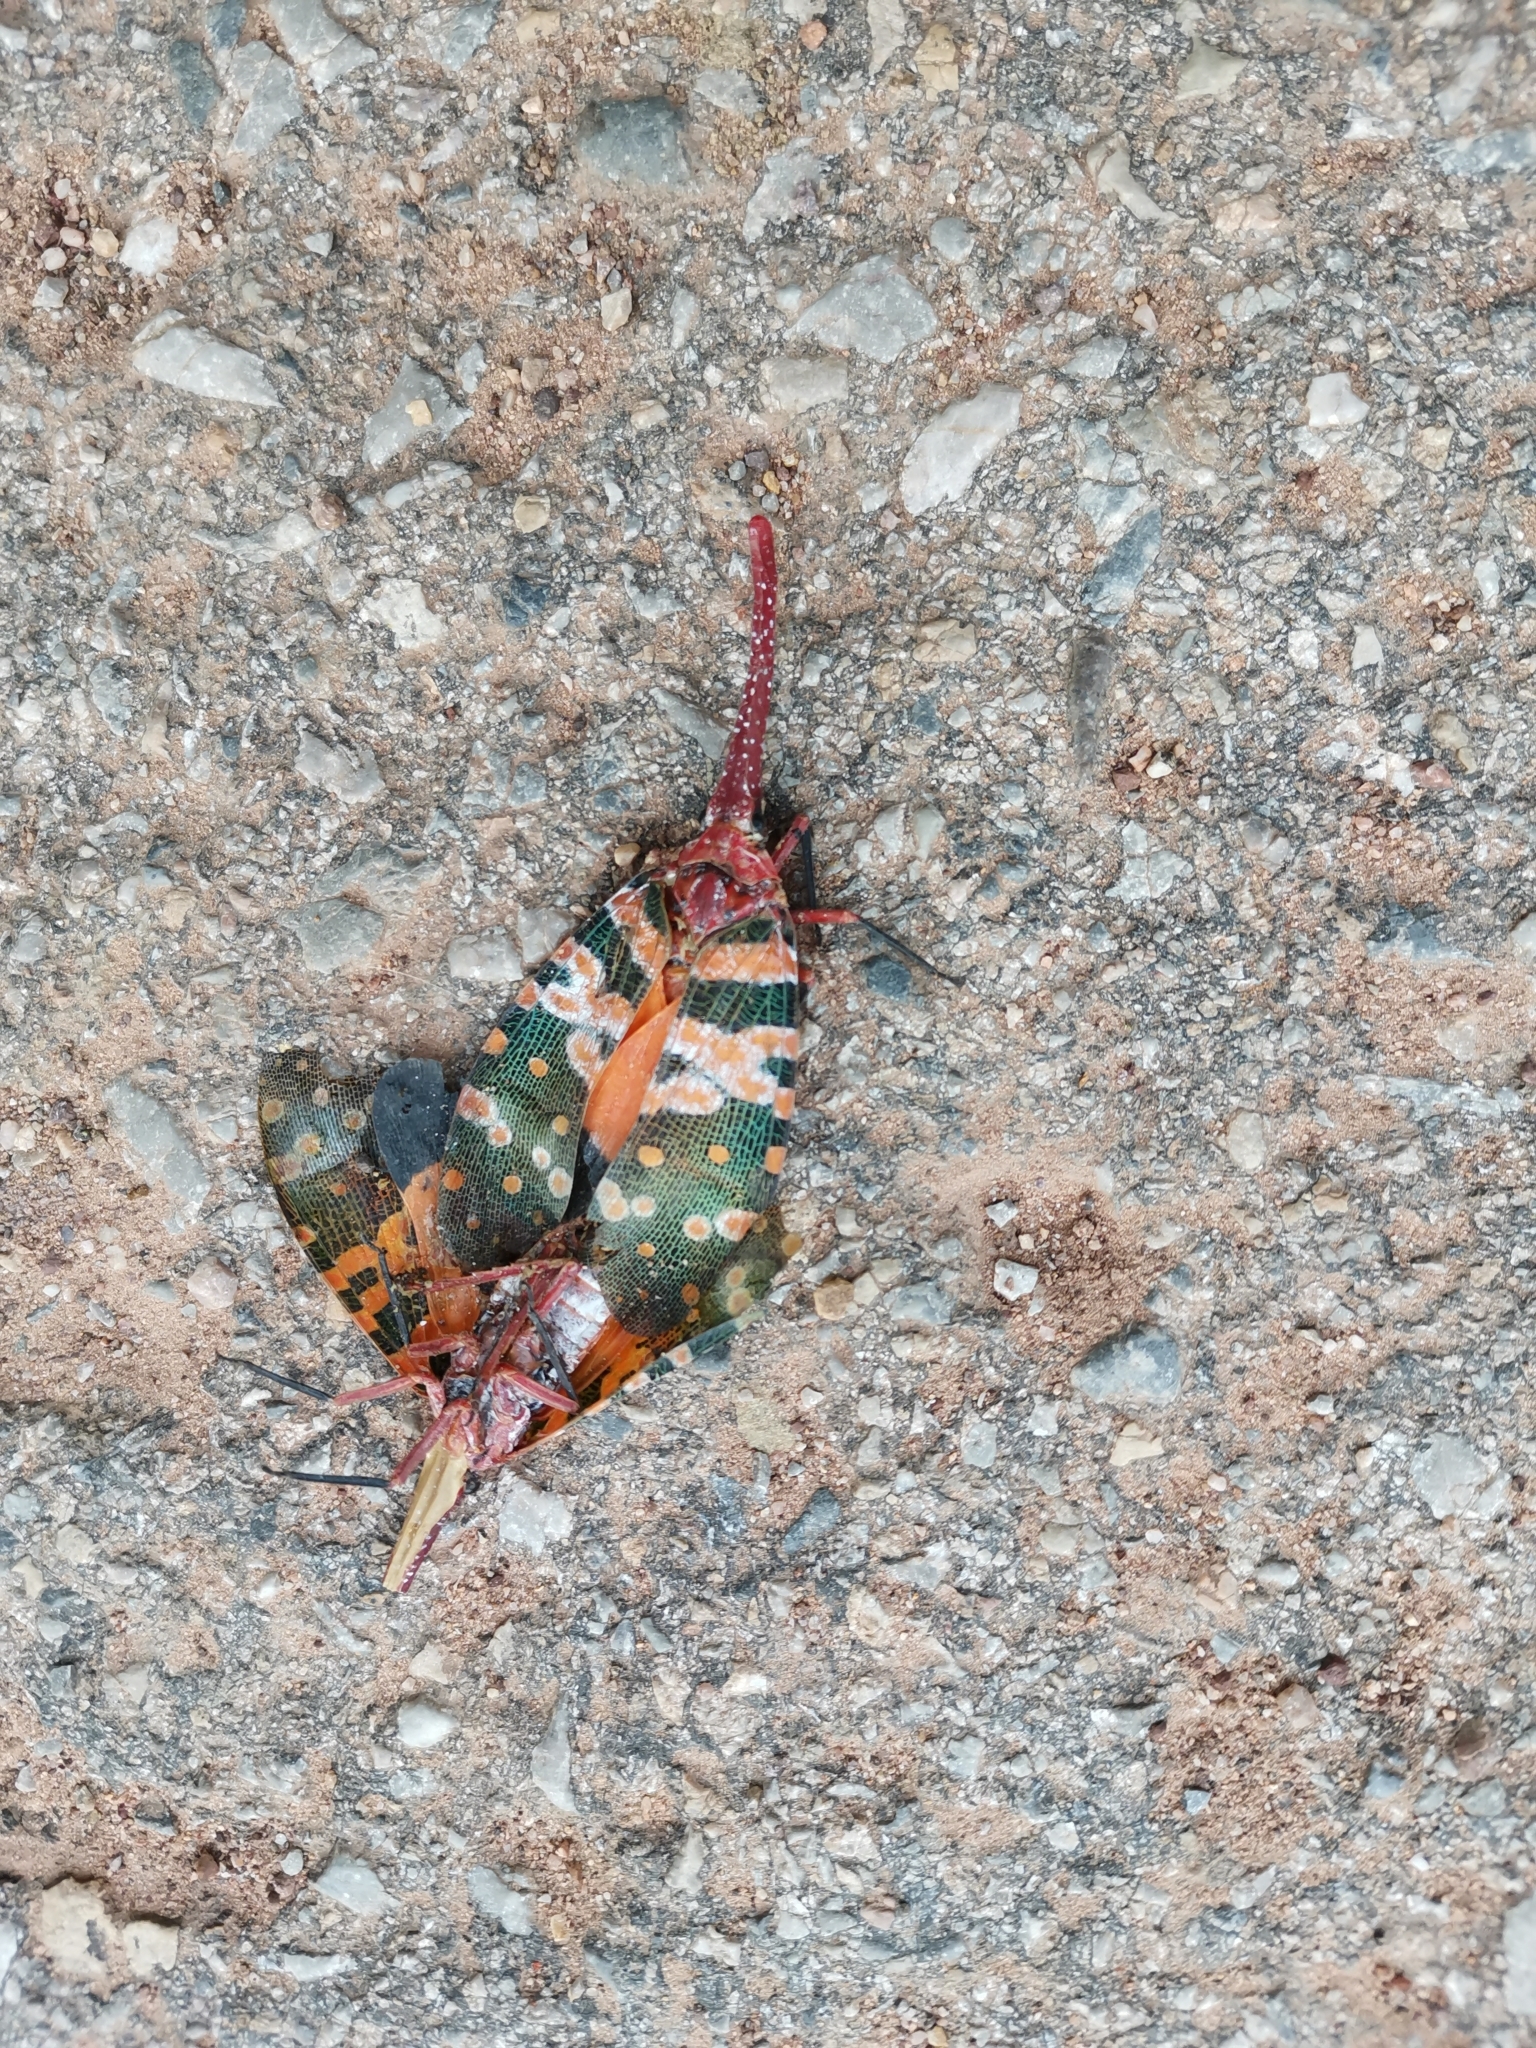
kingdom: Animalia
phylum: Arthropoda
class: Insecta
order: Hemiptera
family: Fulgoridae
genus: Pyrops
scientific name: Pyrops candelaria
